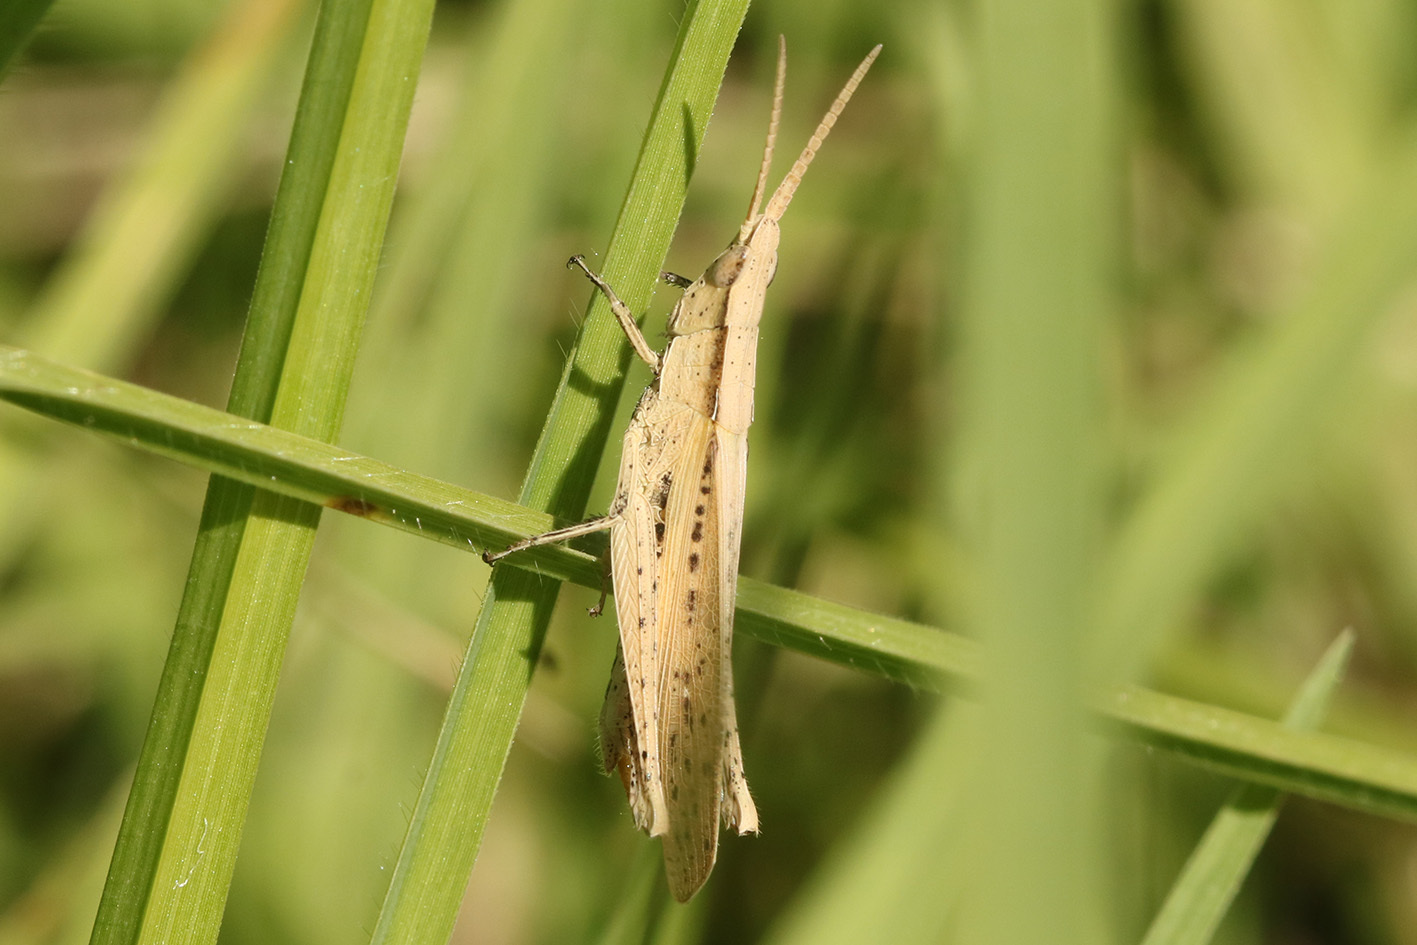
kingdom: Animalia
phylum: Arthropoda
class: Insecta
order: Orthoptera
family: Acrididae
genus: Allotruxalis
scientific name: Allotruxalis gracilis
